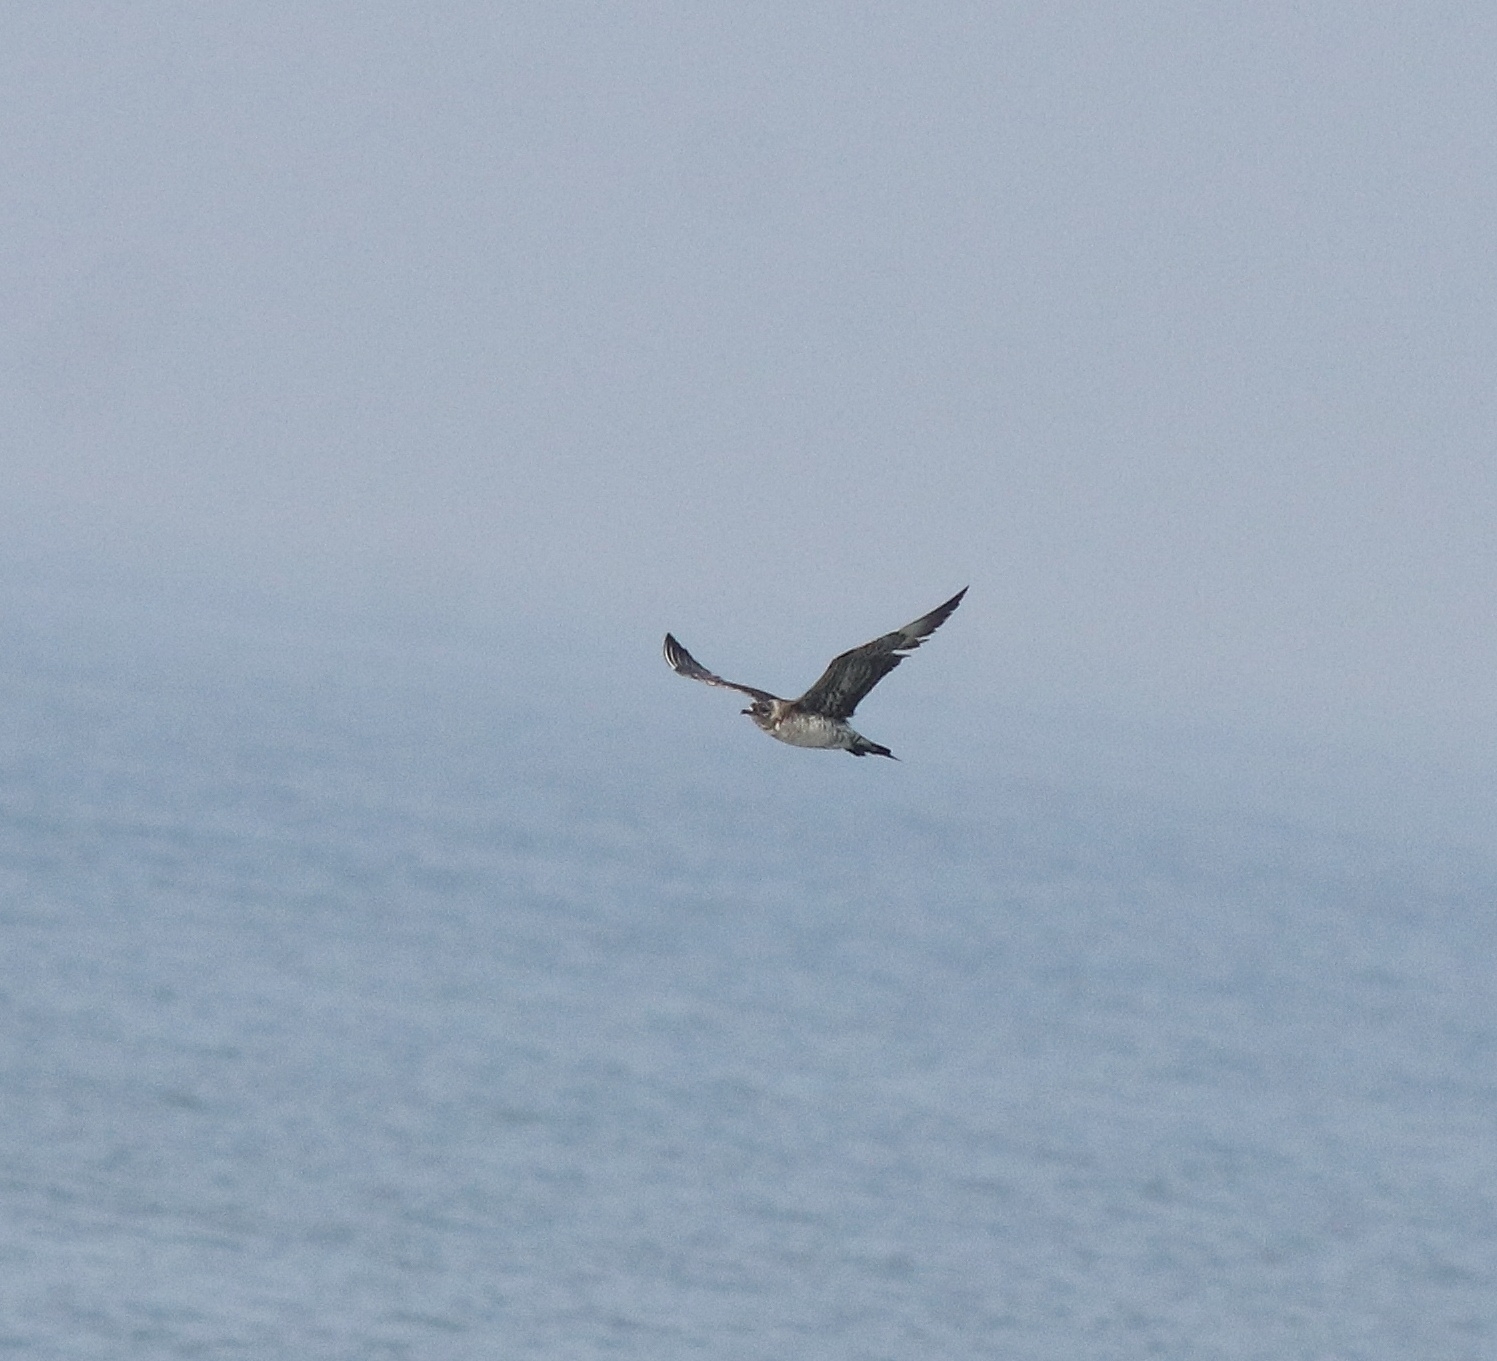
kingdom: Animalia
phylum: Chordata
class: Aves
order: Charadriiformes
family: Stercorariidae
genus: Stercorarius
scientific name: Stercorarius parasiticus
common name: Parasitic jaeger
